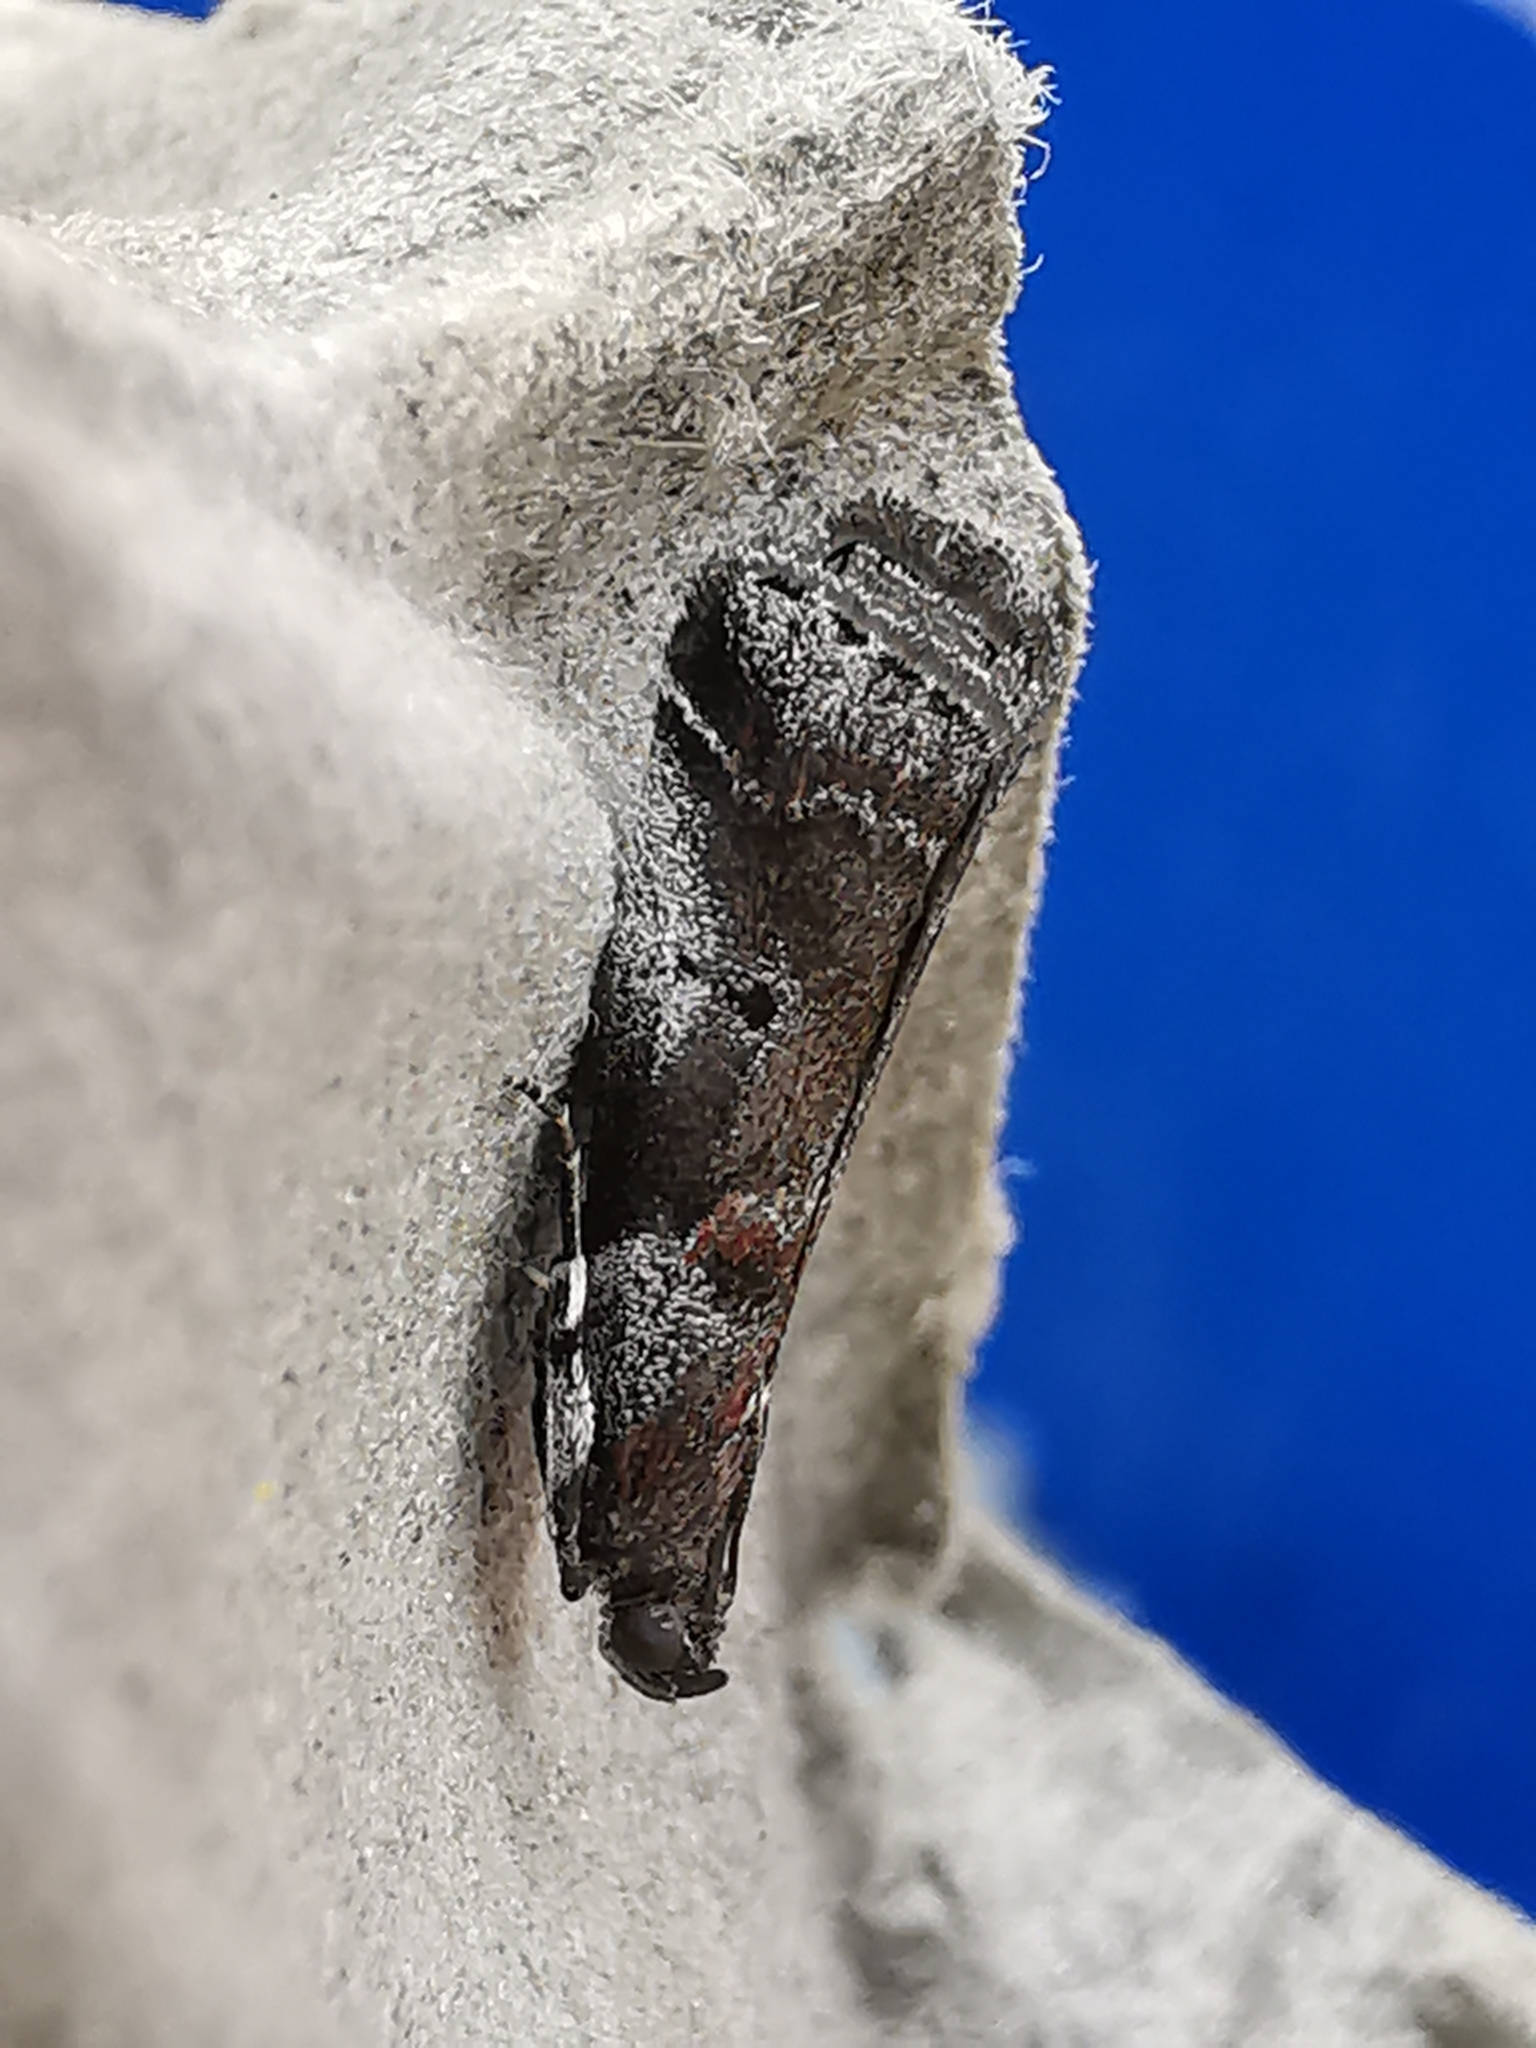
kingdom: Animalia
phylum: Arthropoda
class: Insecta
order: Lepidoptera
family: Pyralidae
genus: Acrobasis
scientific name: Acrobasis suavella
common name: Pyralid moth
